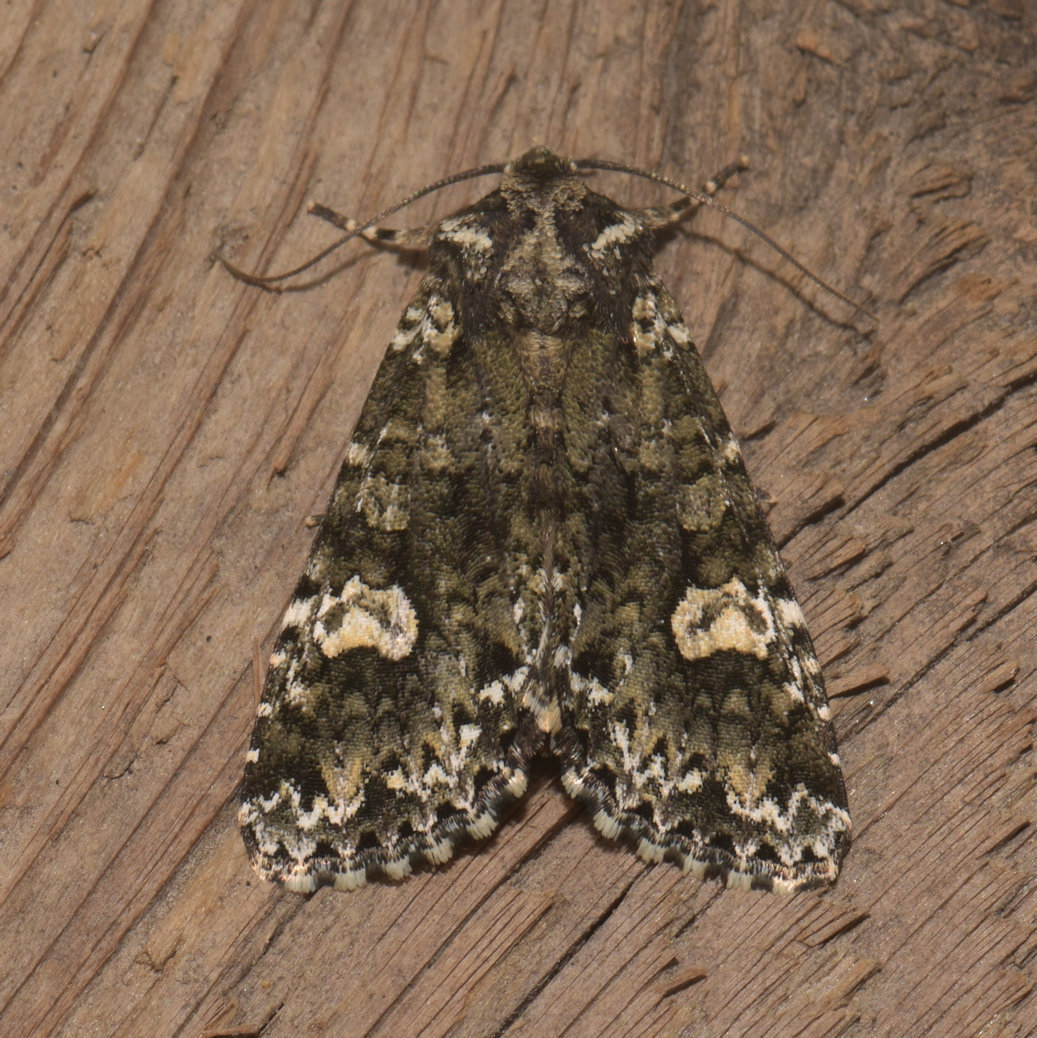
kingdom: Animalia
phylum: Arthropoda
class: Insecta
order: Lepidoptera
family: Noctuidae
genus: Melanchra
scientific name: Melanchra adjuncta
